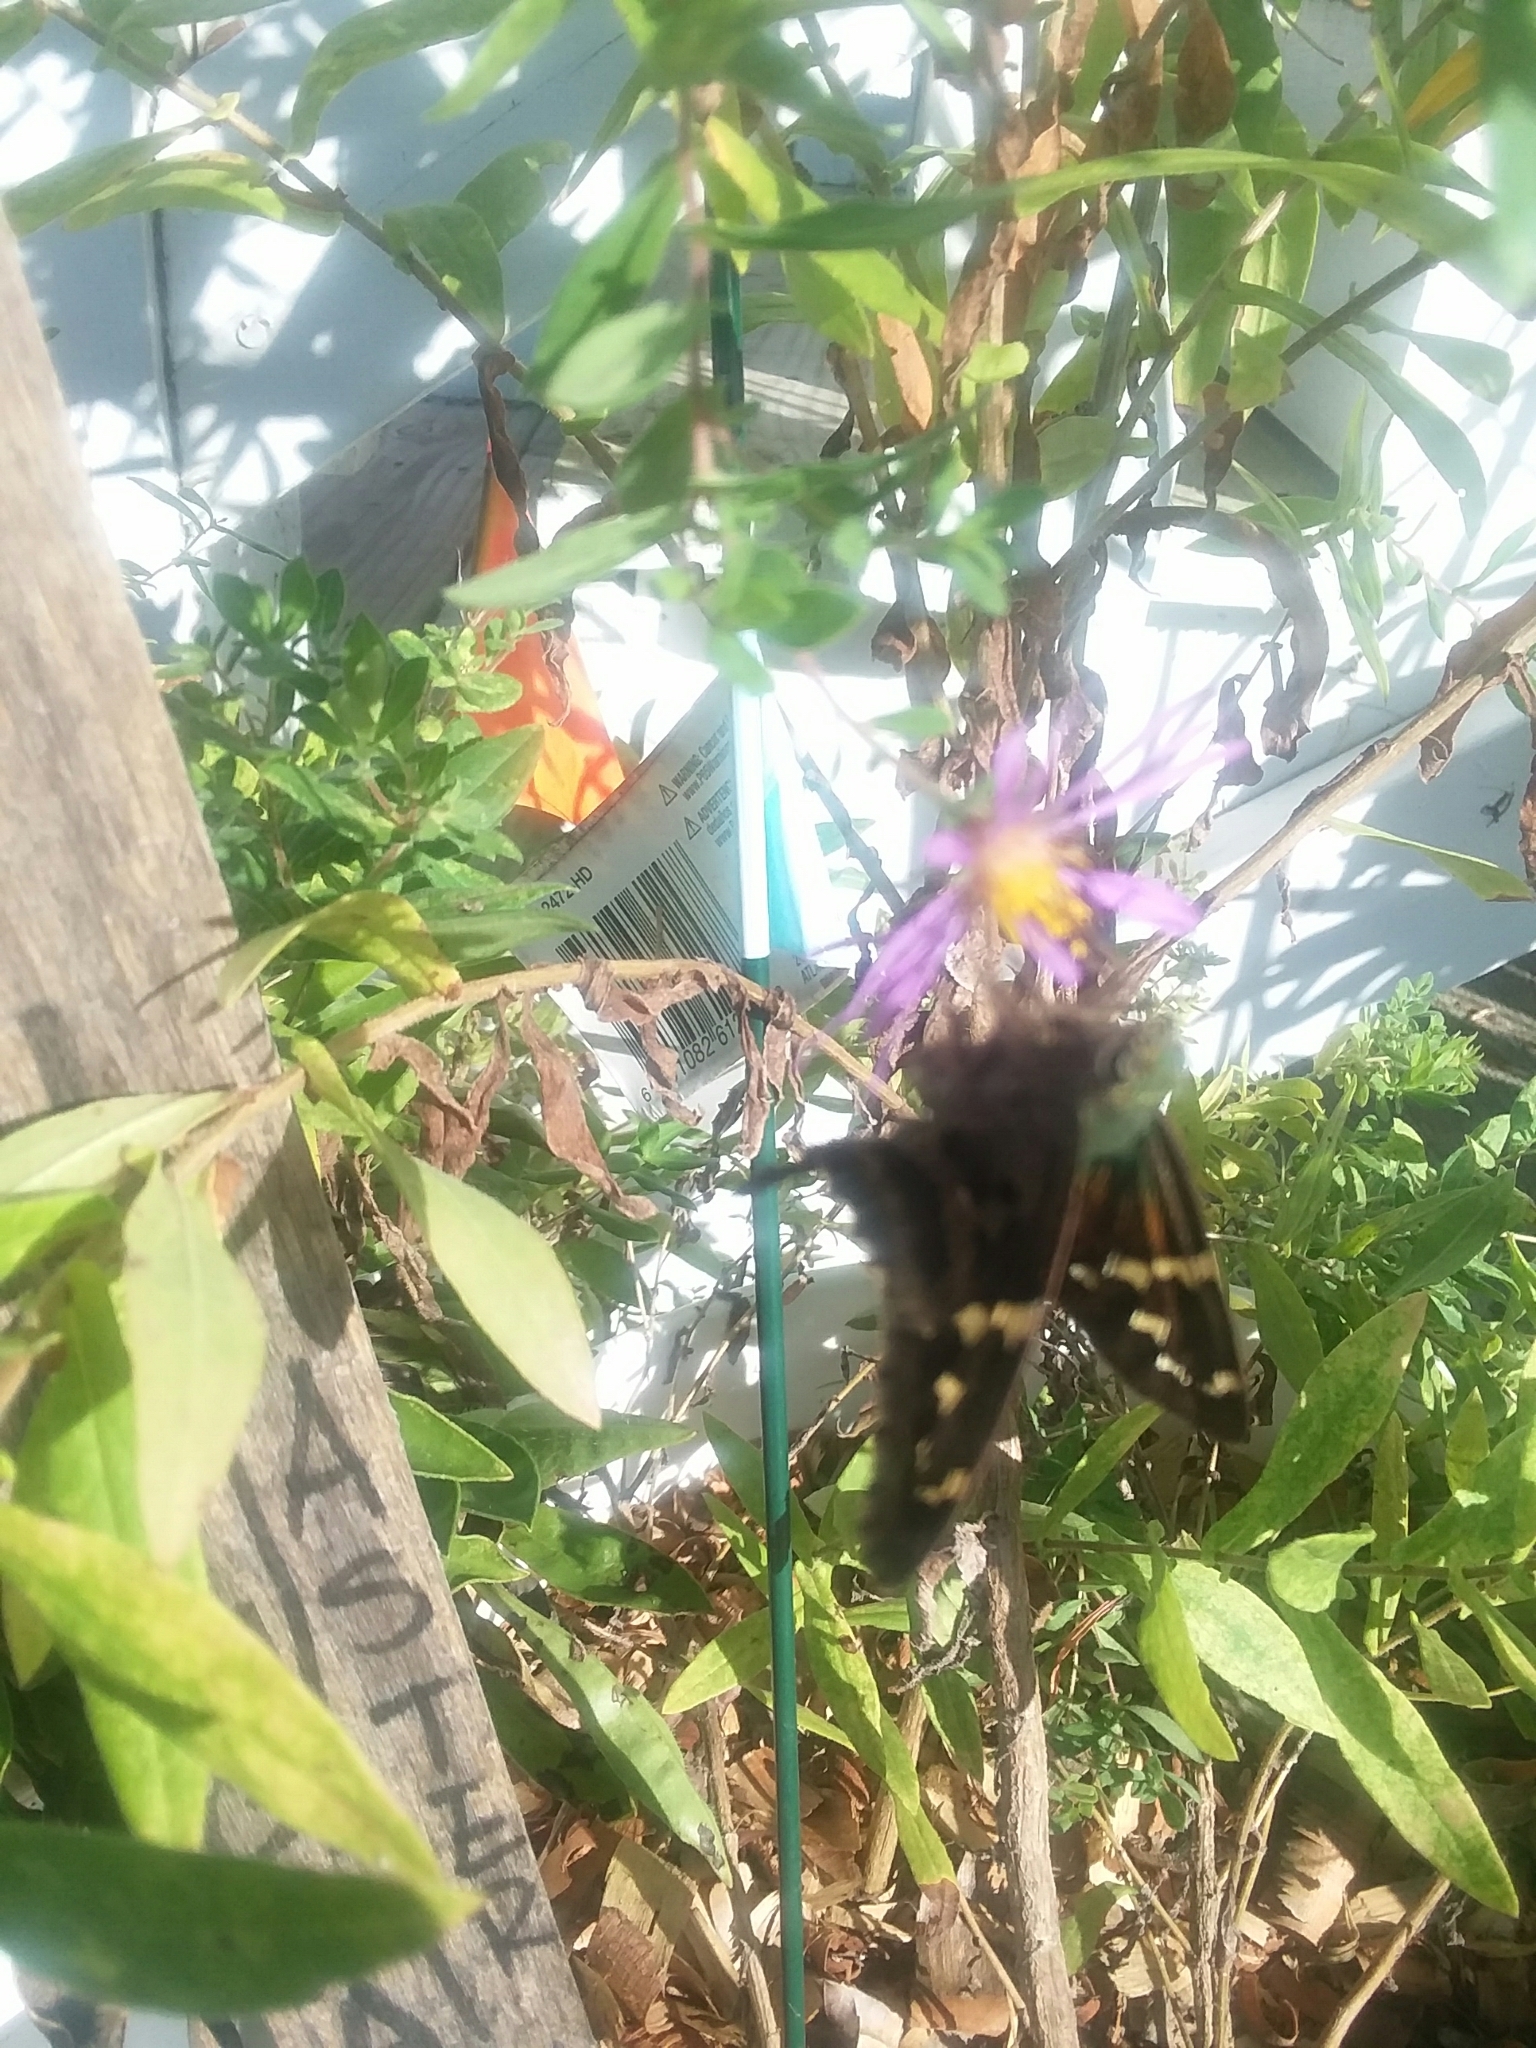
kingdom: Animalia
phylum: Arthropoda
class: Insecta
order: Lepidoptera
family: Hesperiidae
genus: Urbanus
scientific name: Urbanus proteus
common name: Long-tailed skipper
